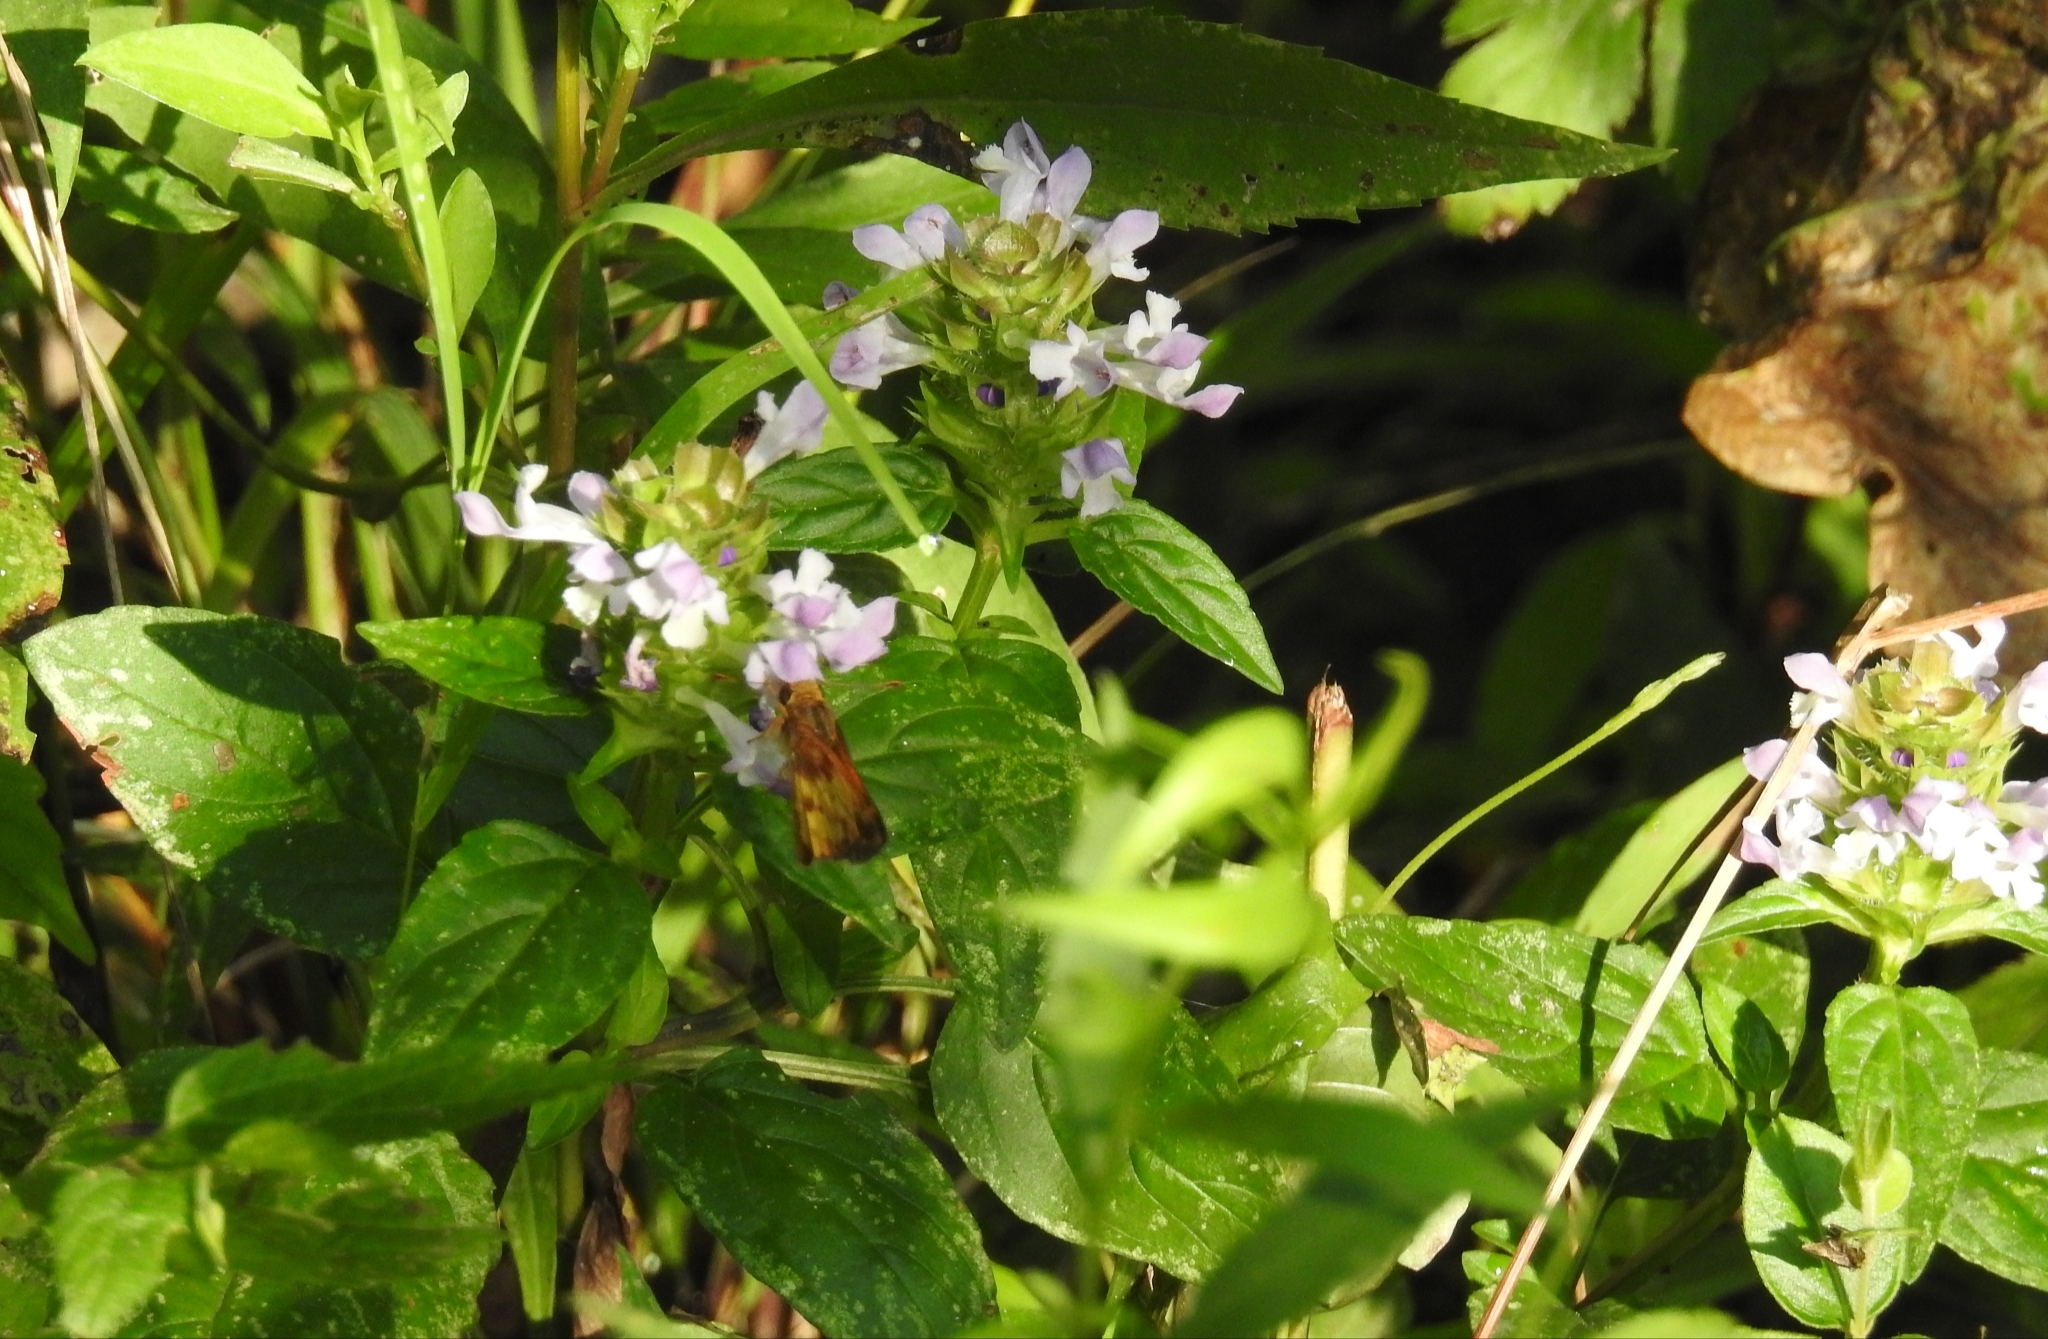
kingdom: Plantae
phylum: Tracheophyta
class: Magnoliopsida
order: Lamiales
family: Lamiaceae
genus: Prunella
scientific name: Prunella vulgaris
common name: Heal-all
